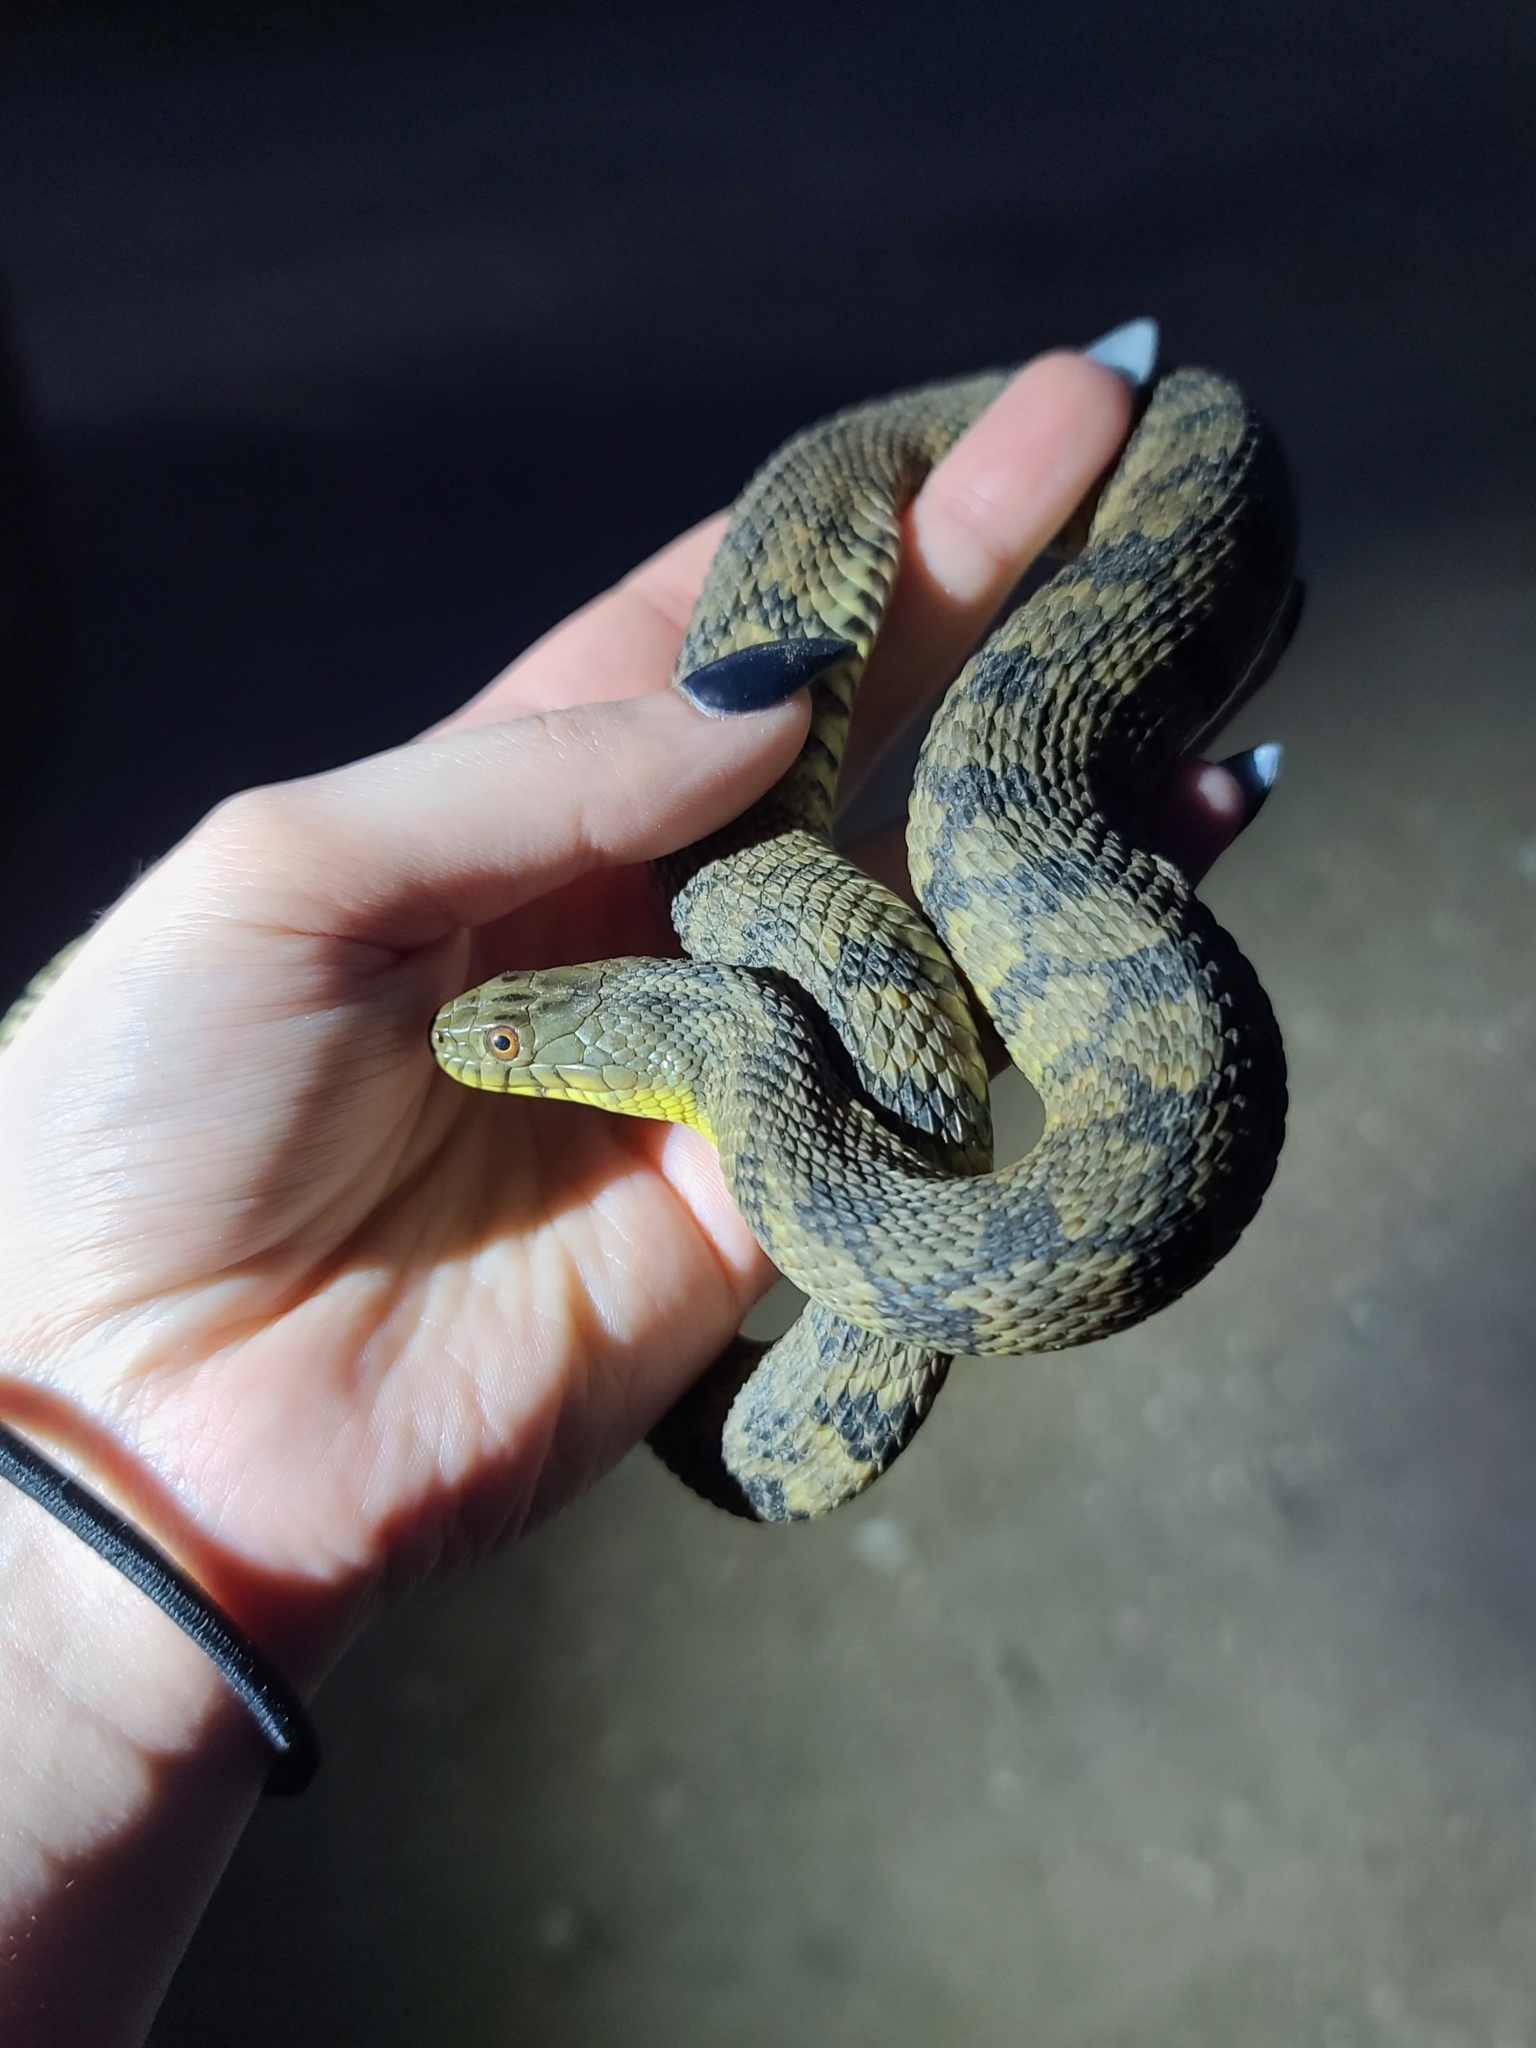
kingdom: Animalia
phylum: Chordata
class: Squamata
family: Colubridae
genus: Nerodia
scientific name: Nerodia rhombifer
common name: Diamondback water snake
